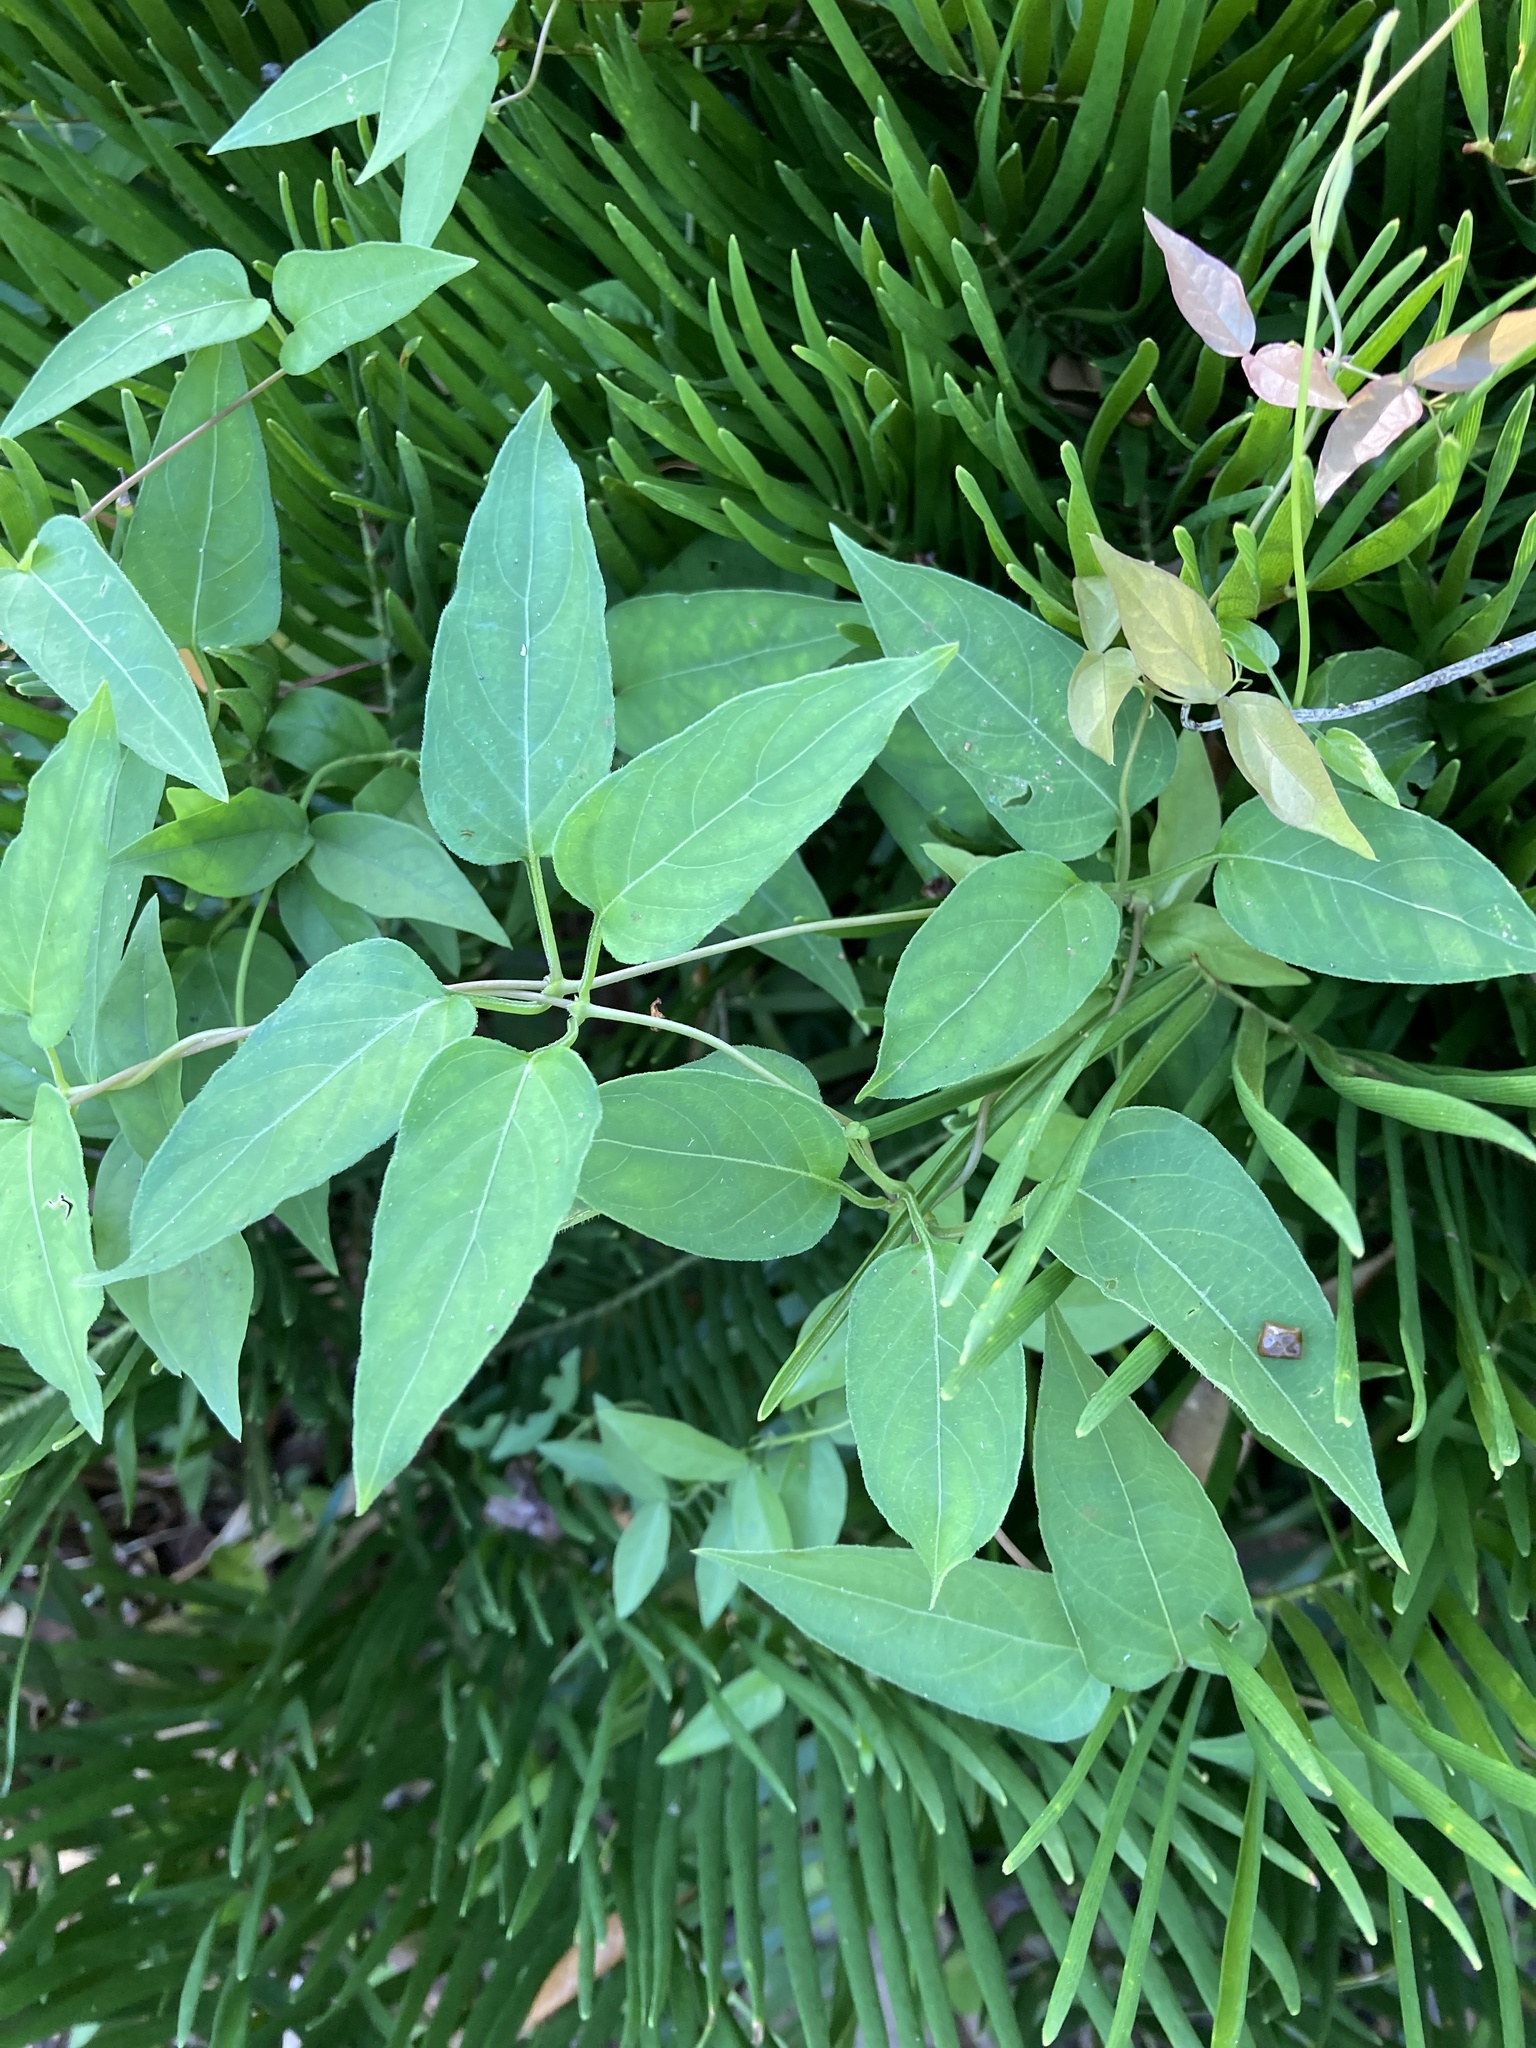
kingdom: Plantae
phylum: Tracheophyta
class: Magnoliopsida
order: Gentianales
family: Rubiaceae
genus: Paederia
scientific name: Paederia foetida
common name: Stinkvine
